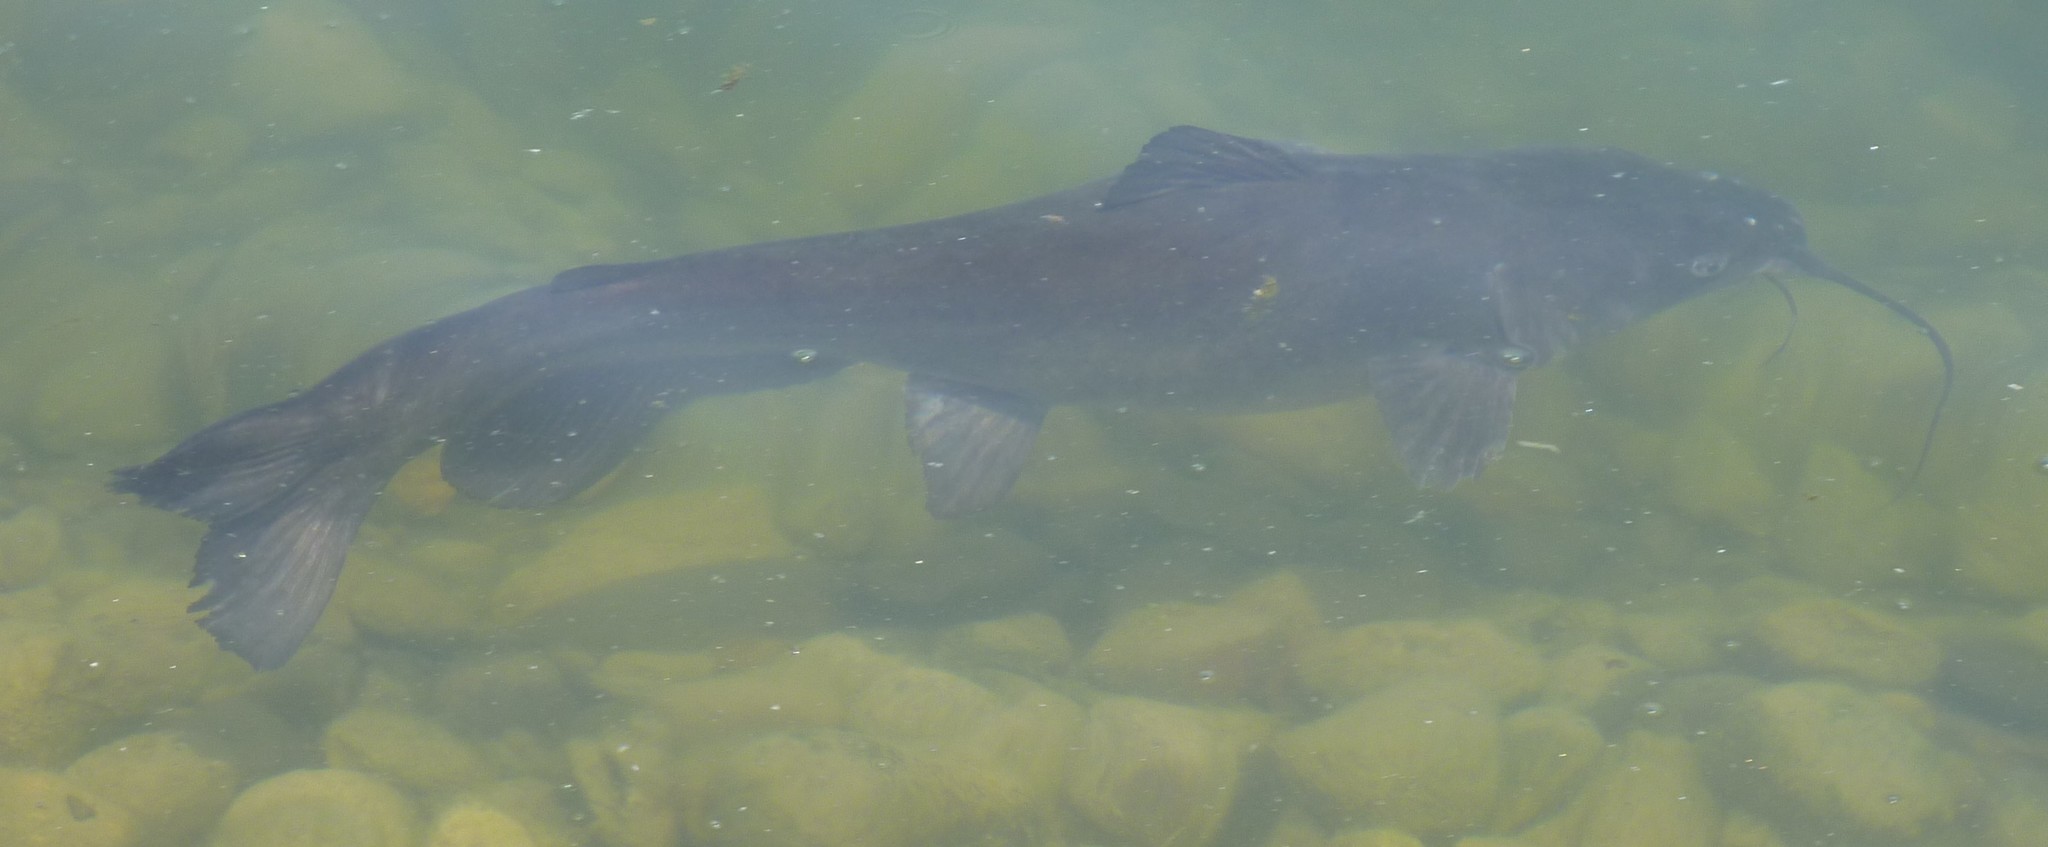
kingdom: Animalia
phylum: Chordata
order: Siluriformes
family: Ictaluridae
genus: Ictalurus
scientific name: Ictalurus punctatus
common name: Channel catfish
